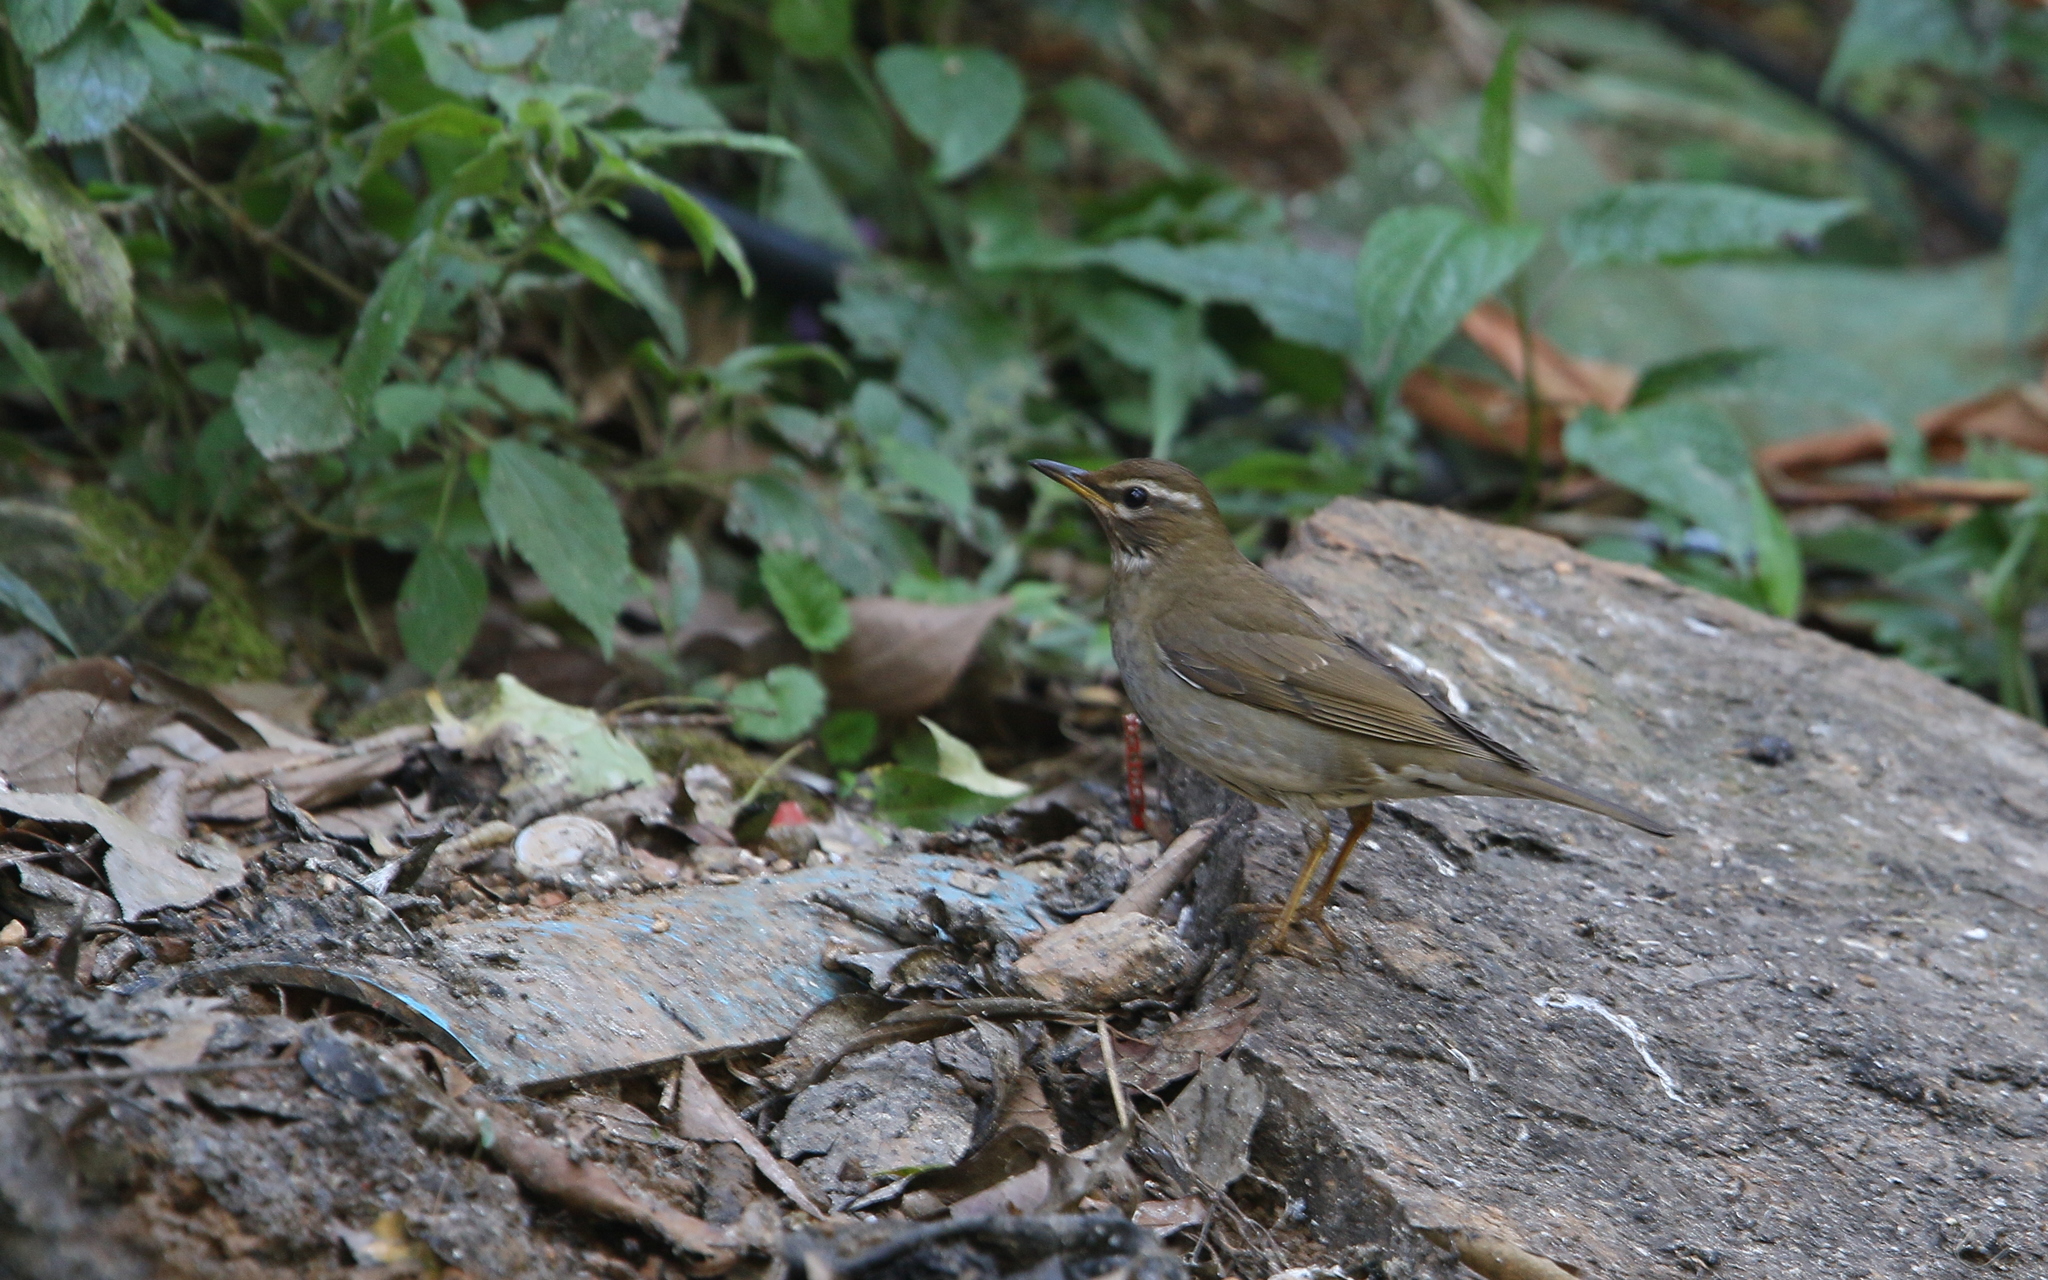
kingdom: Animalia
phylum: Chordata
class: Aves
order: Passeriformes
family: Turdidae
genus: Turdus
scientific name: Turdus feae
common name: Grey-sided thrush
